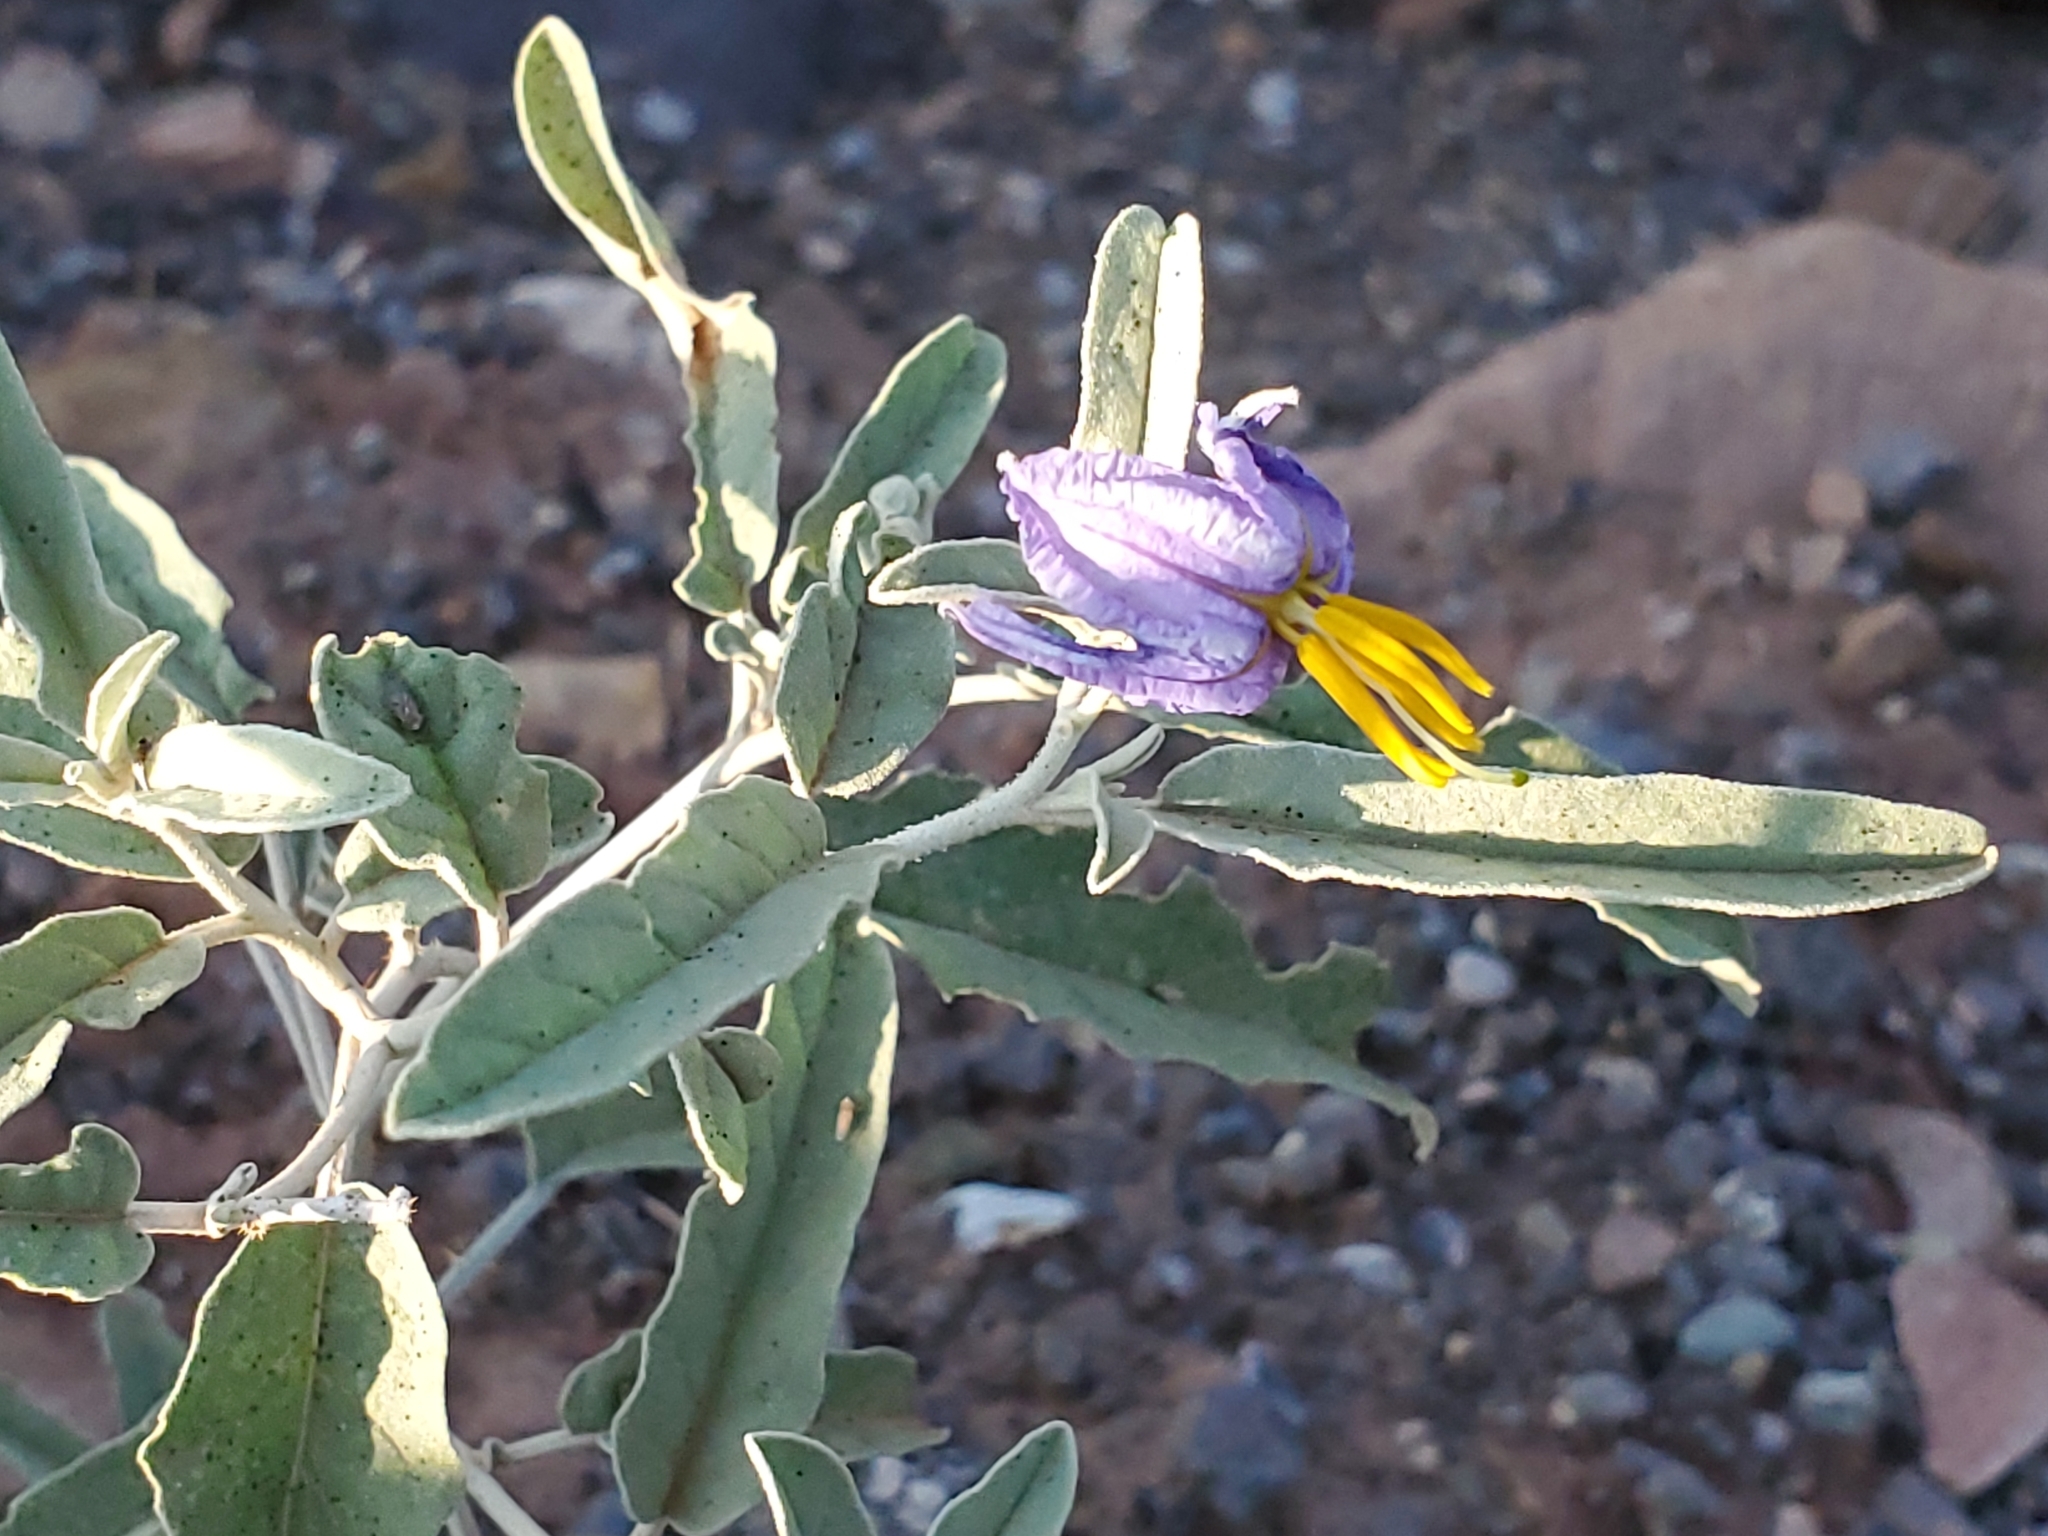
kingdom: Plantae
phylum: Tracheophyta
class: Magnoliopsida
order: Solanales
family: Solanaceae
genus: Solanum
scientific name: Solanum elaeagnifolium
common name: Silverleaf nightshade
